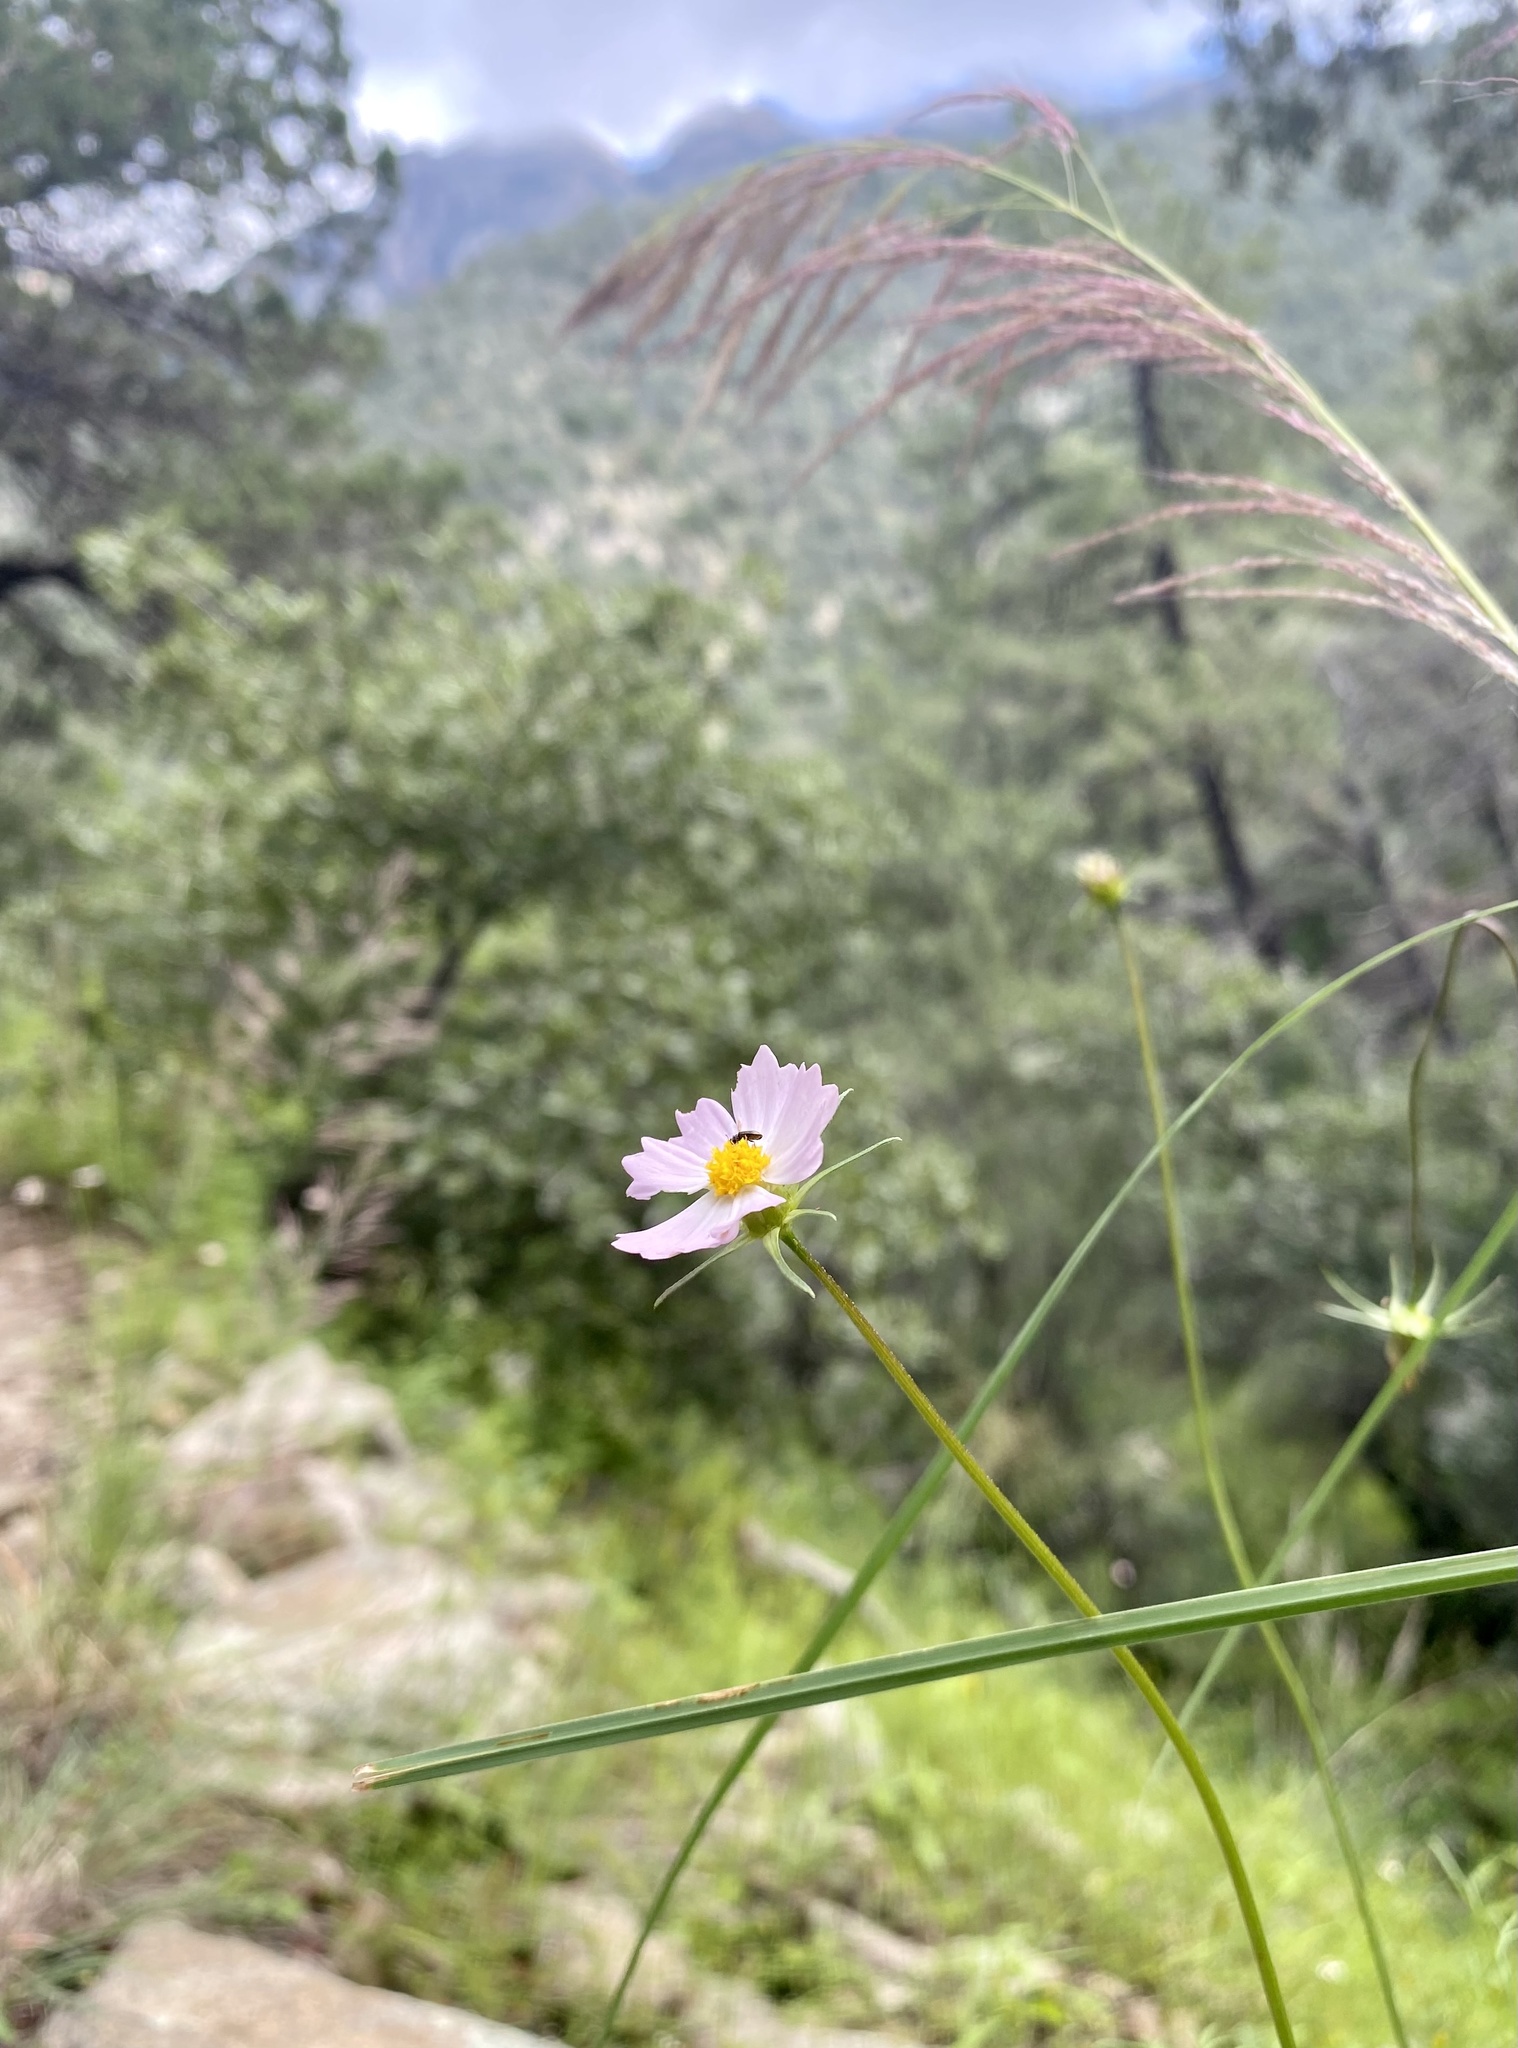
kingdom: Plantae
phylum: Tracheophyta
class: Magnoliopsida
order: Asterales
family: Asteraceae
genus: Cosmos
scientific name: Cosmos parviflorus
